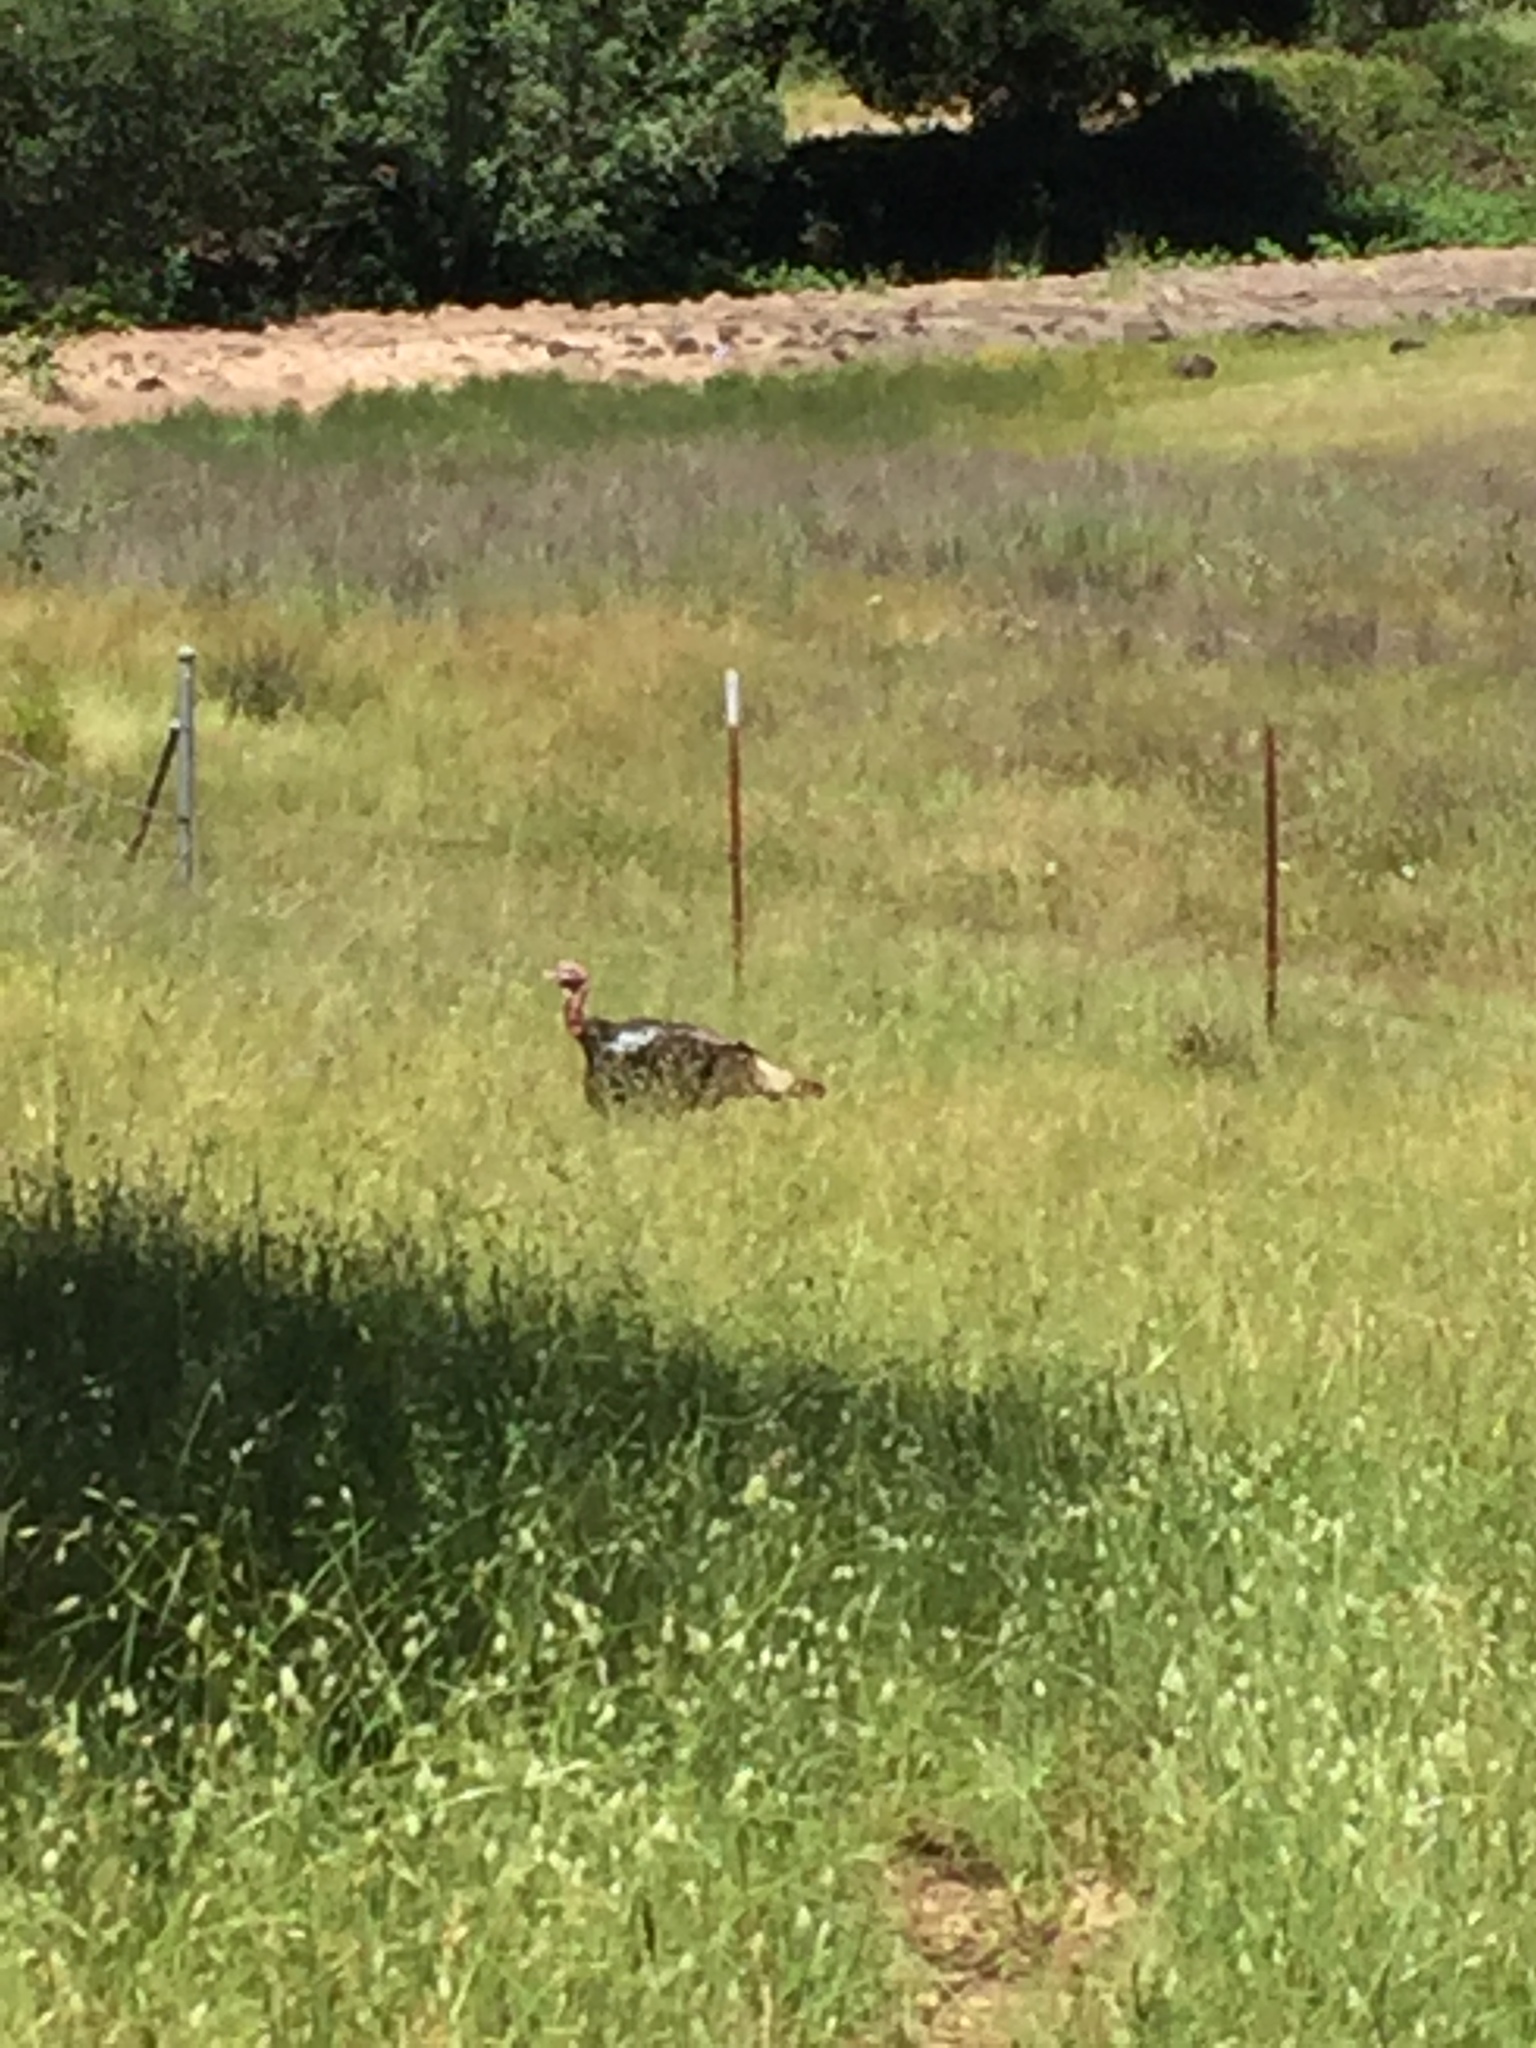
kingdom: Animalia
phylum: Chordata
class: Aves
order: Galliformes
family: Phasianidae
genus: Meleagris
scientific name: Meleagris gallopavo
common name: Wild turkey
